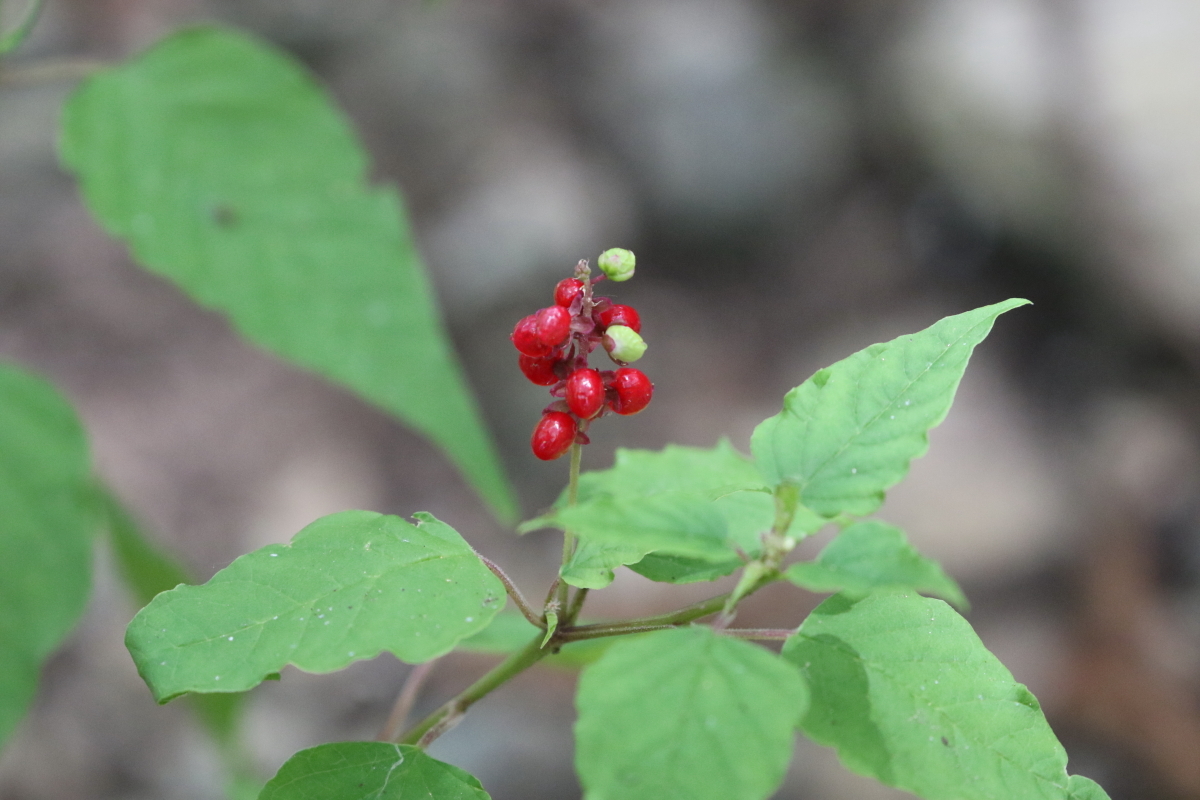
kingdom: Plantae
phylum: Tracheophyta
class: Magnoliopsida
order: Caryophyllales
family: Phytolaccaceae
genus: Rivina
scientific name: Rivina humilis
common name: Rougeplant
